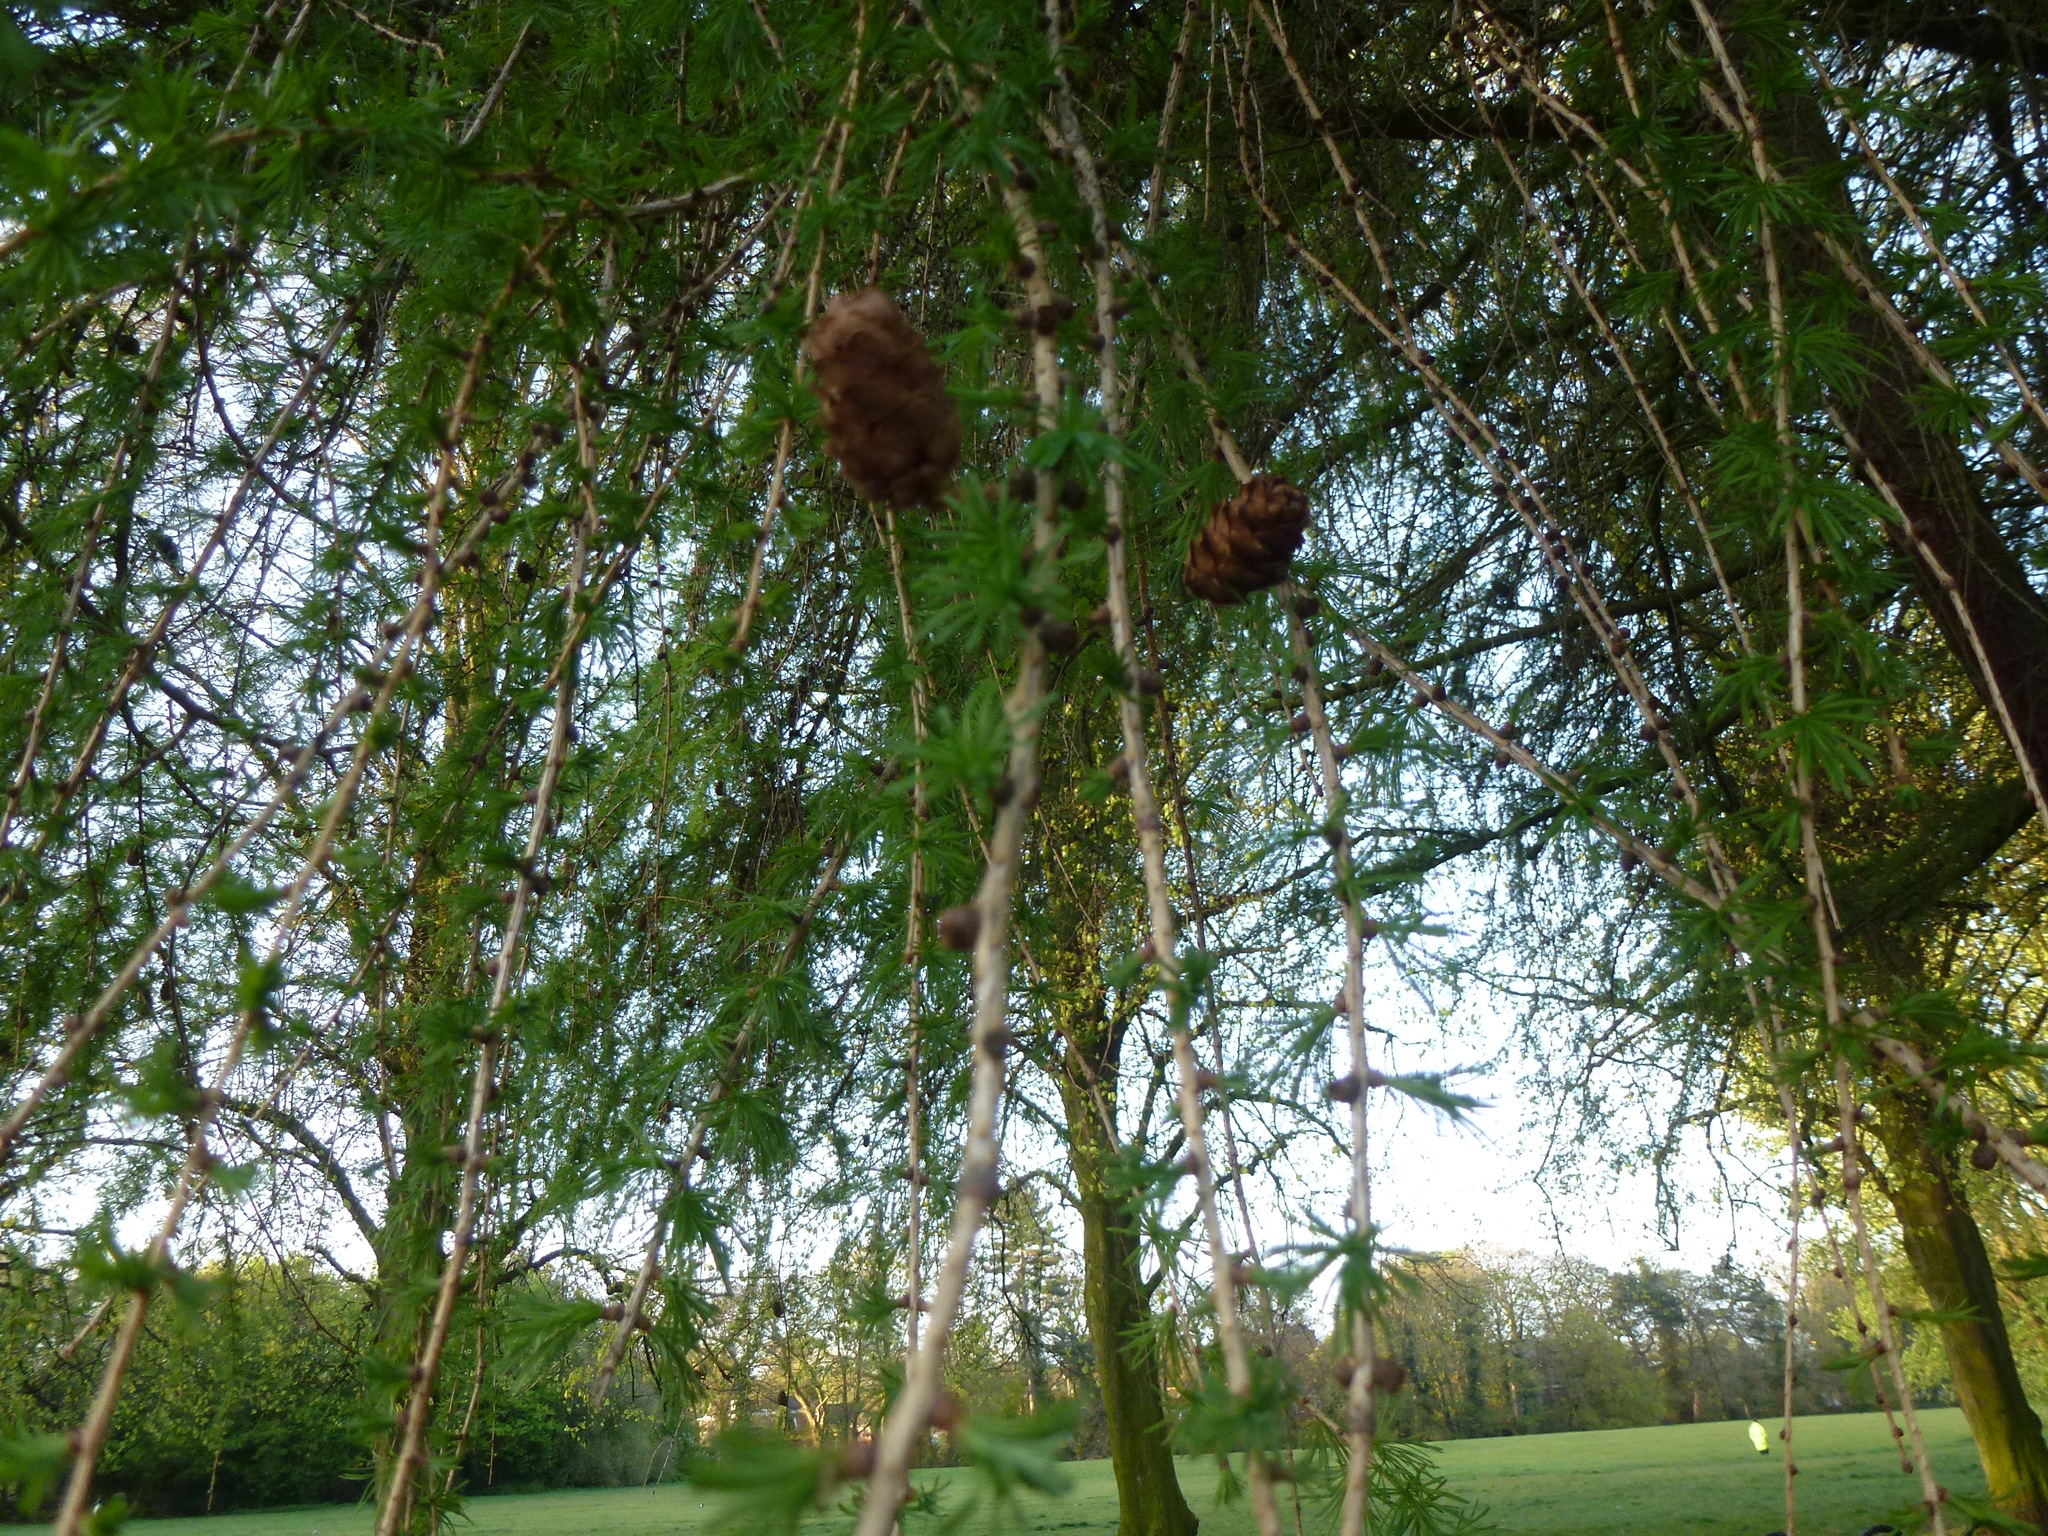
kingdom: Plantae
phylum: Tracheophyta
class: Pinopsida
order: Pinales
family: Pinaceae
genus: Larix
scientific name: Larix decidua
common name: European larch
